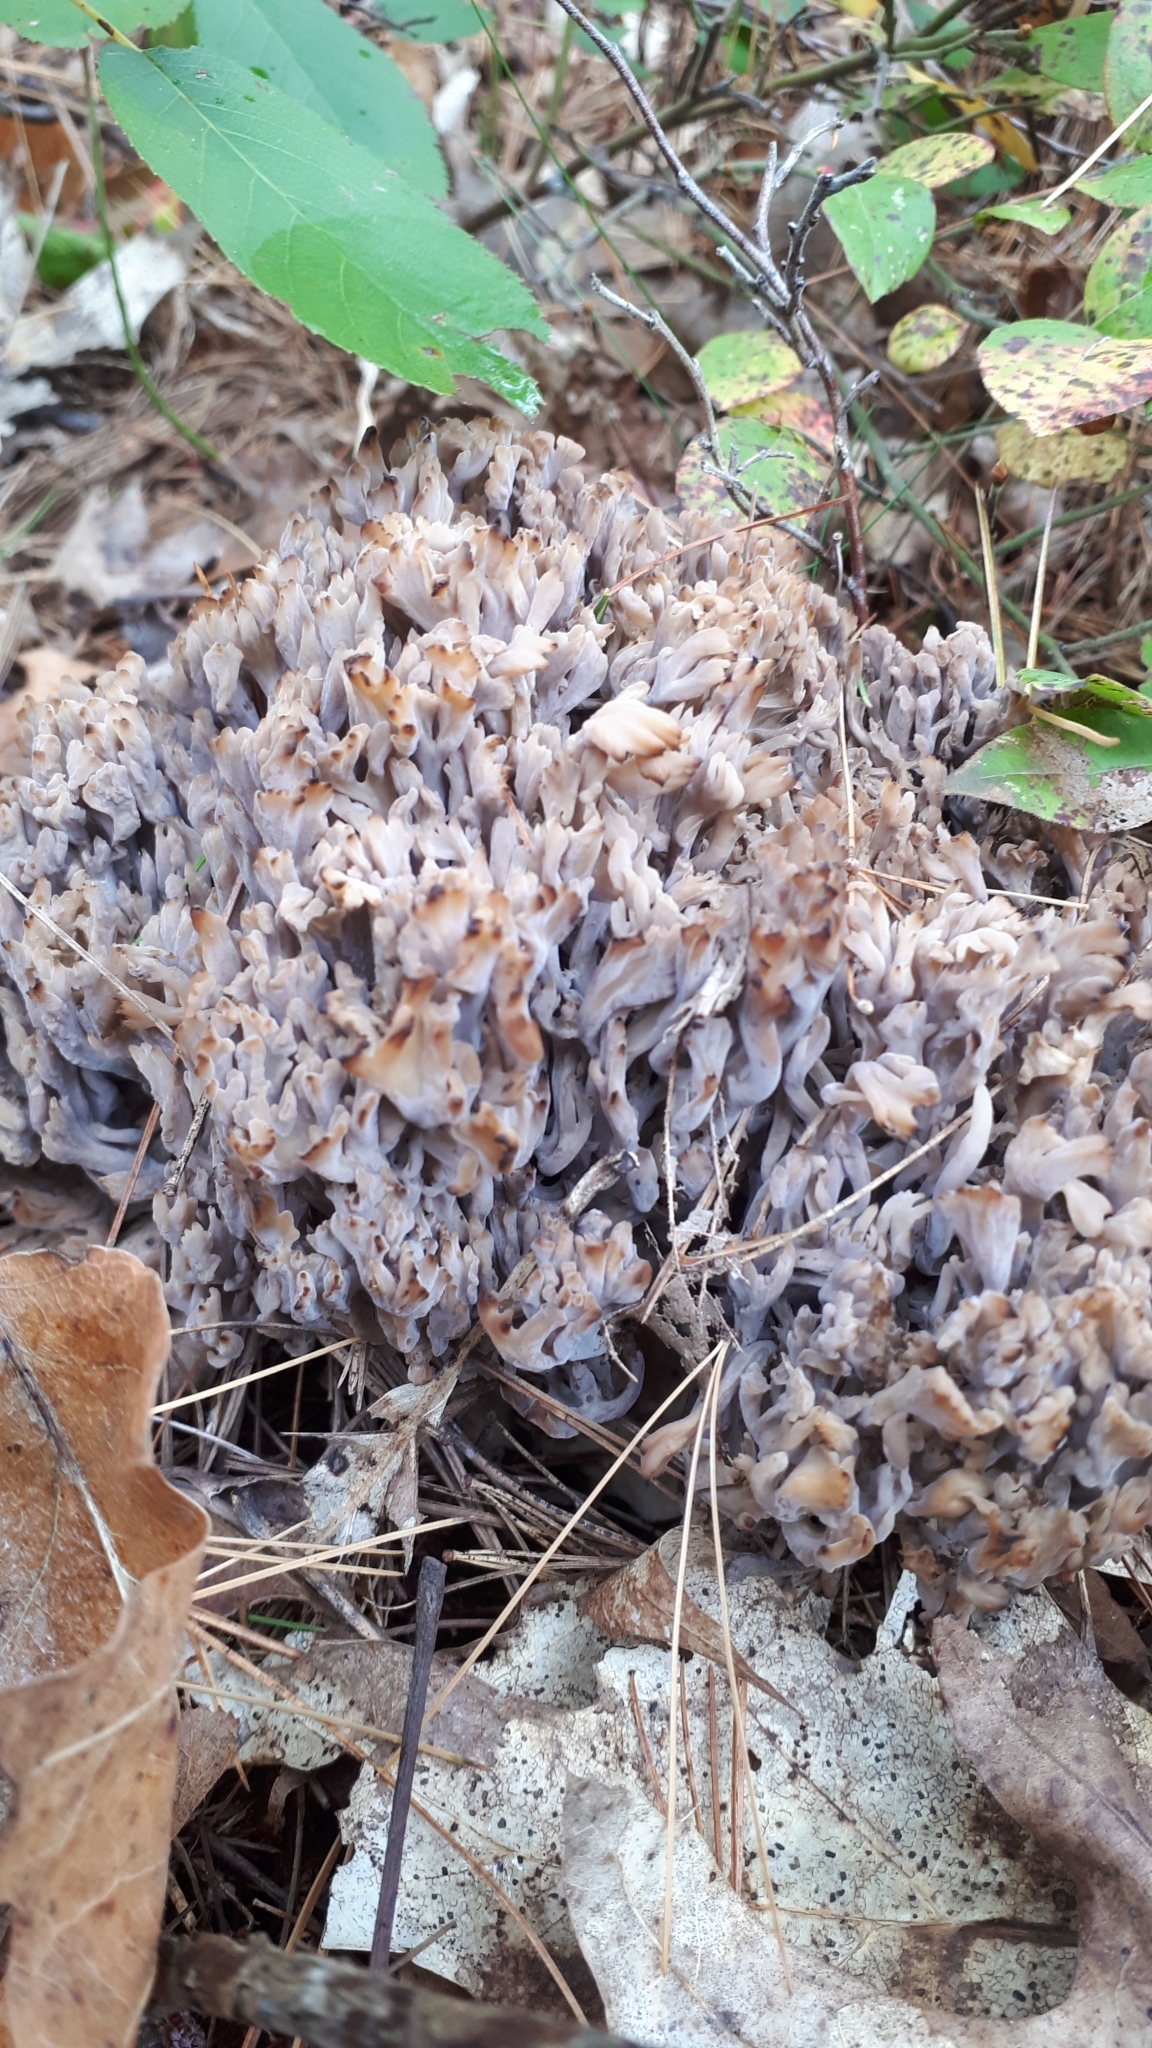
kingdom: Fungi
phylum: Ascomycota
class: Sordariomycetes
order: Sordariales
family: Helminthosphaeriaceae
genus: Helminthosphaeria
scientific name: Helminthosphaeria clavariarum
